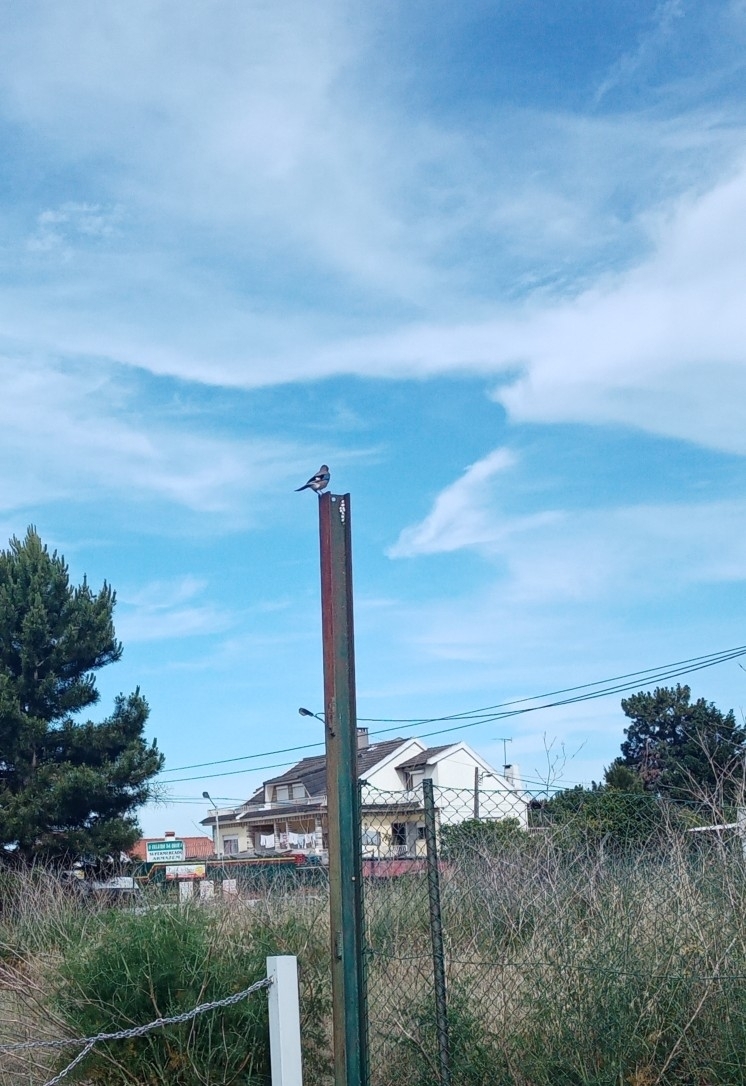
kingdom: Animalia
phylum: Chordata
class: Aves
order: Passeriformes
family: Corvidae
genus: Garrulus
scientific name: Garrulus glandarius
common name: Eurasian jay
